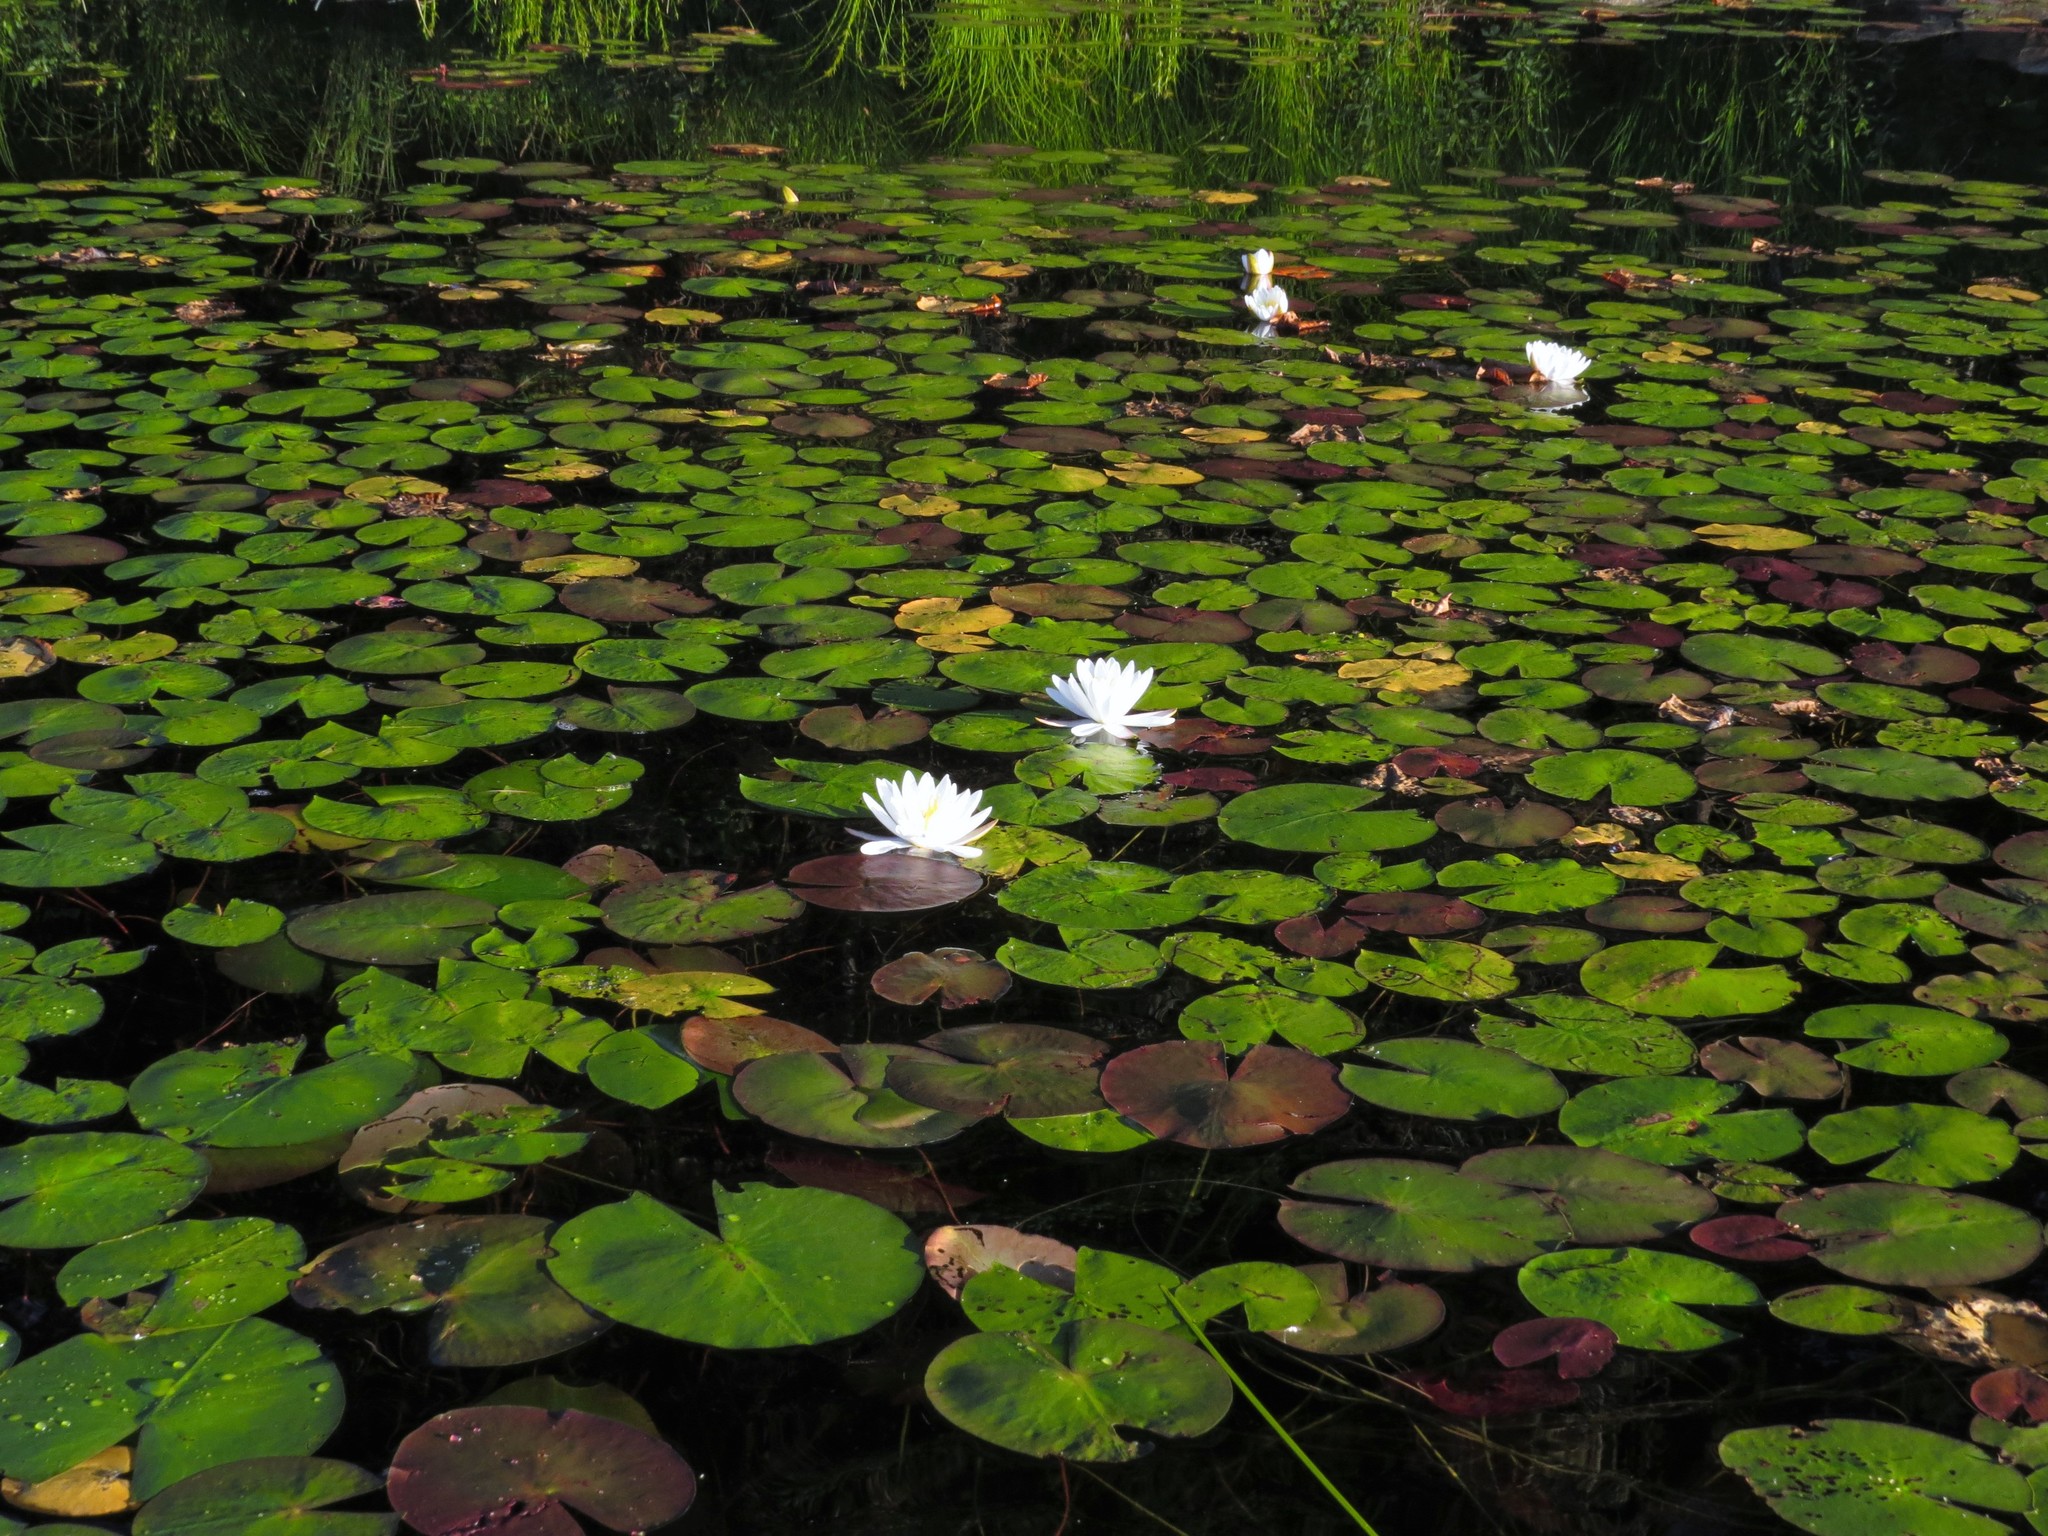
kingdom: Plantae
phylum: Tracheophyta
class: Magnoliopsida
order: Nymphaeales
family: Nymphaeaceae
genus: Nymphaea
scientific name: Nymphaea odorata
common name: Fragrant water-lily
